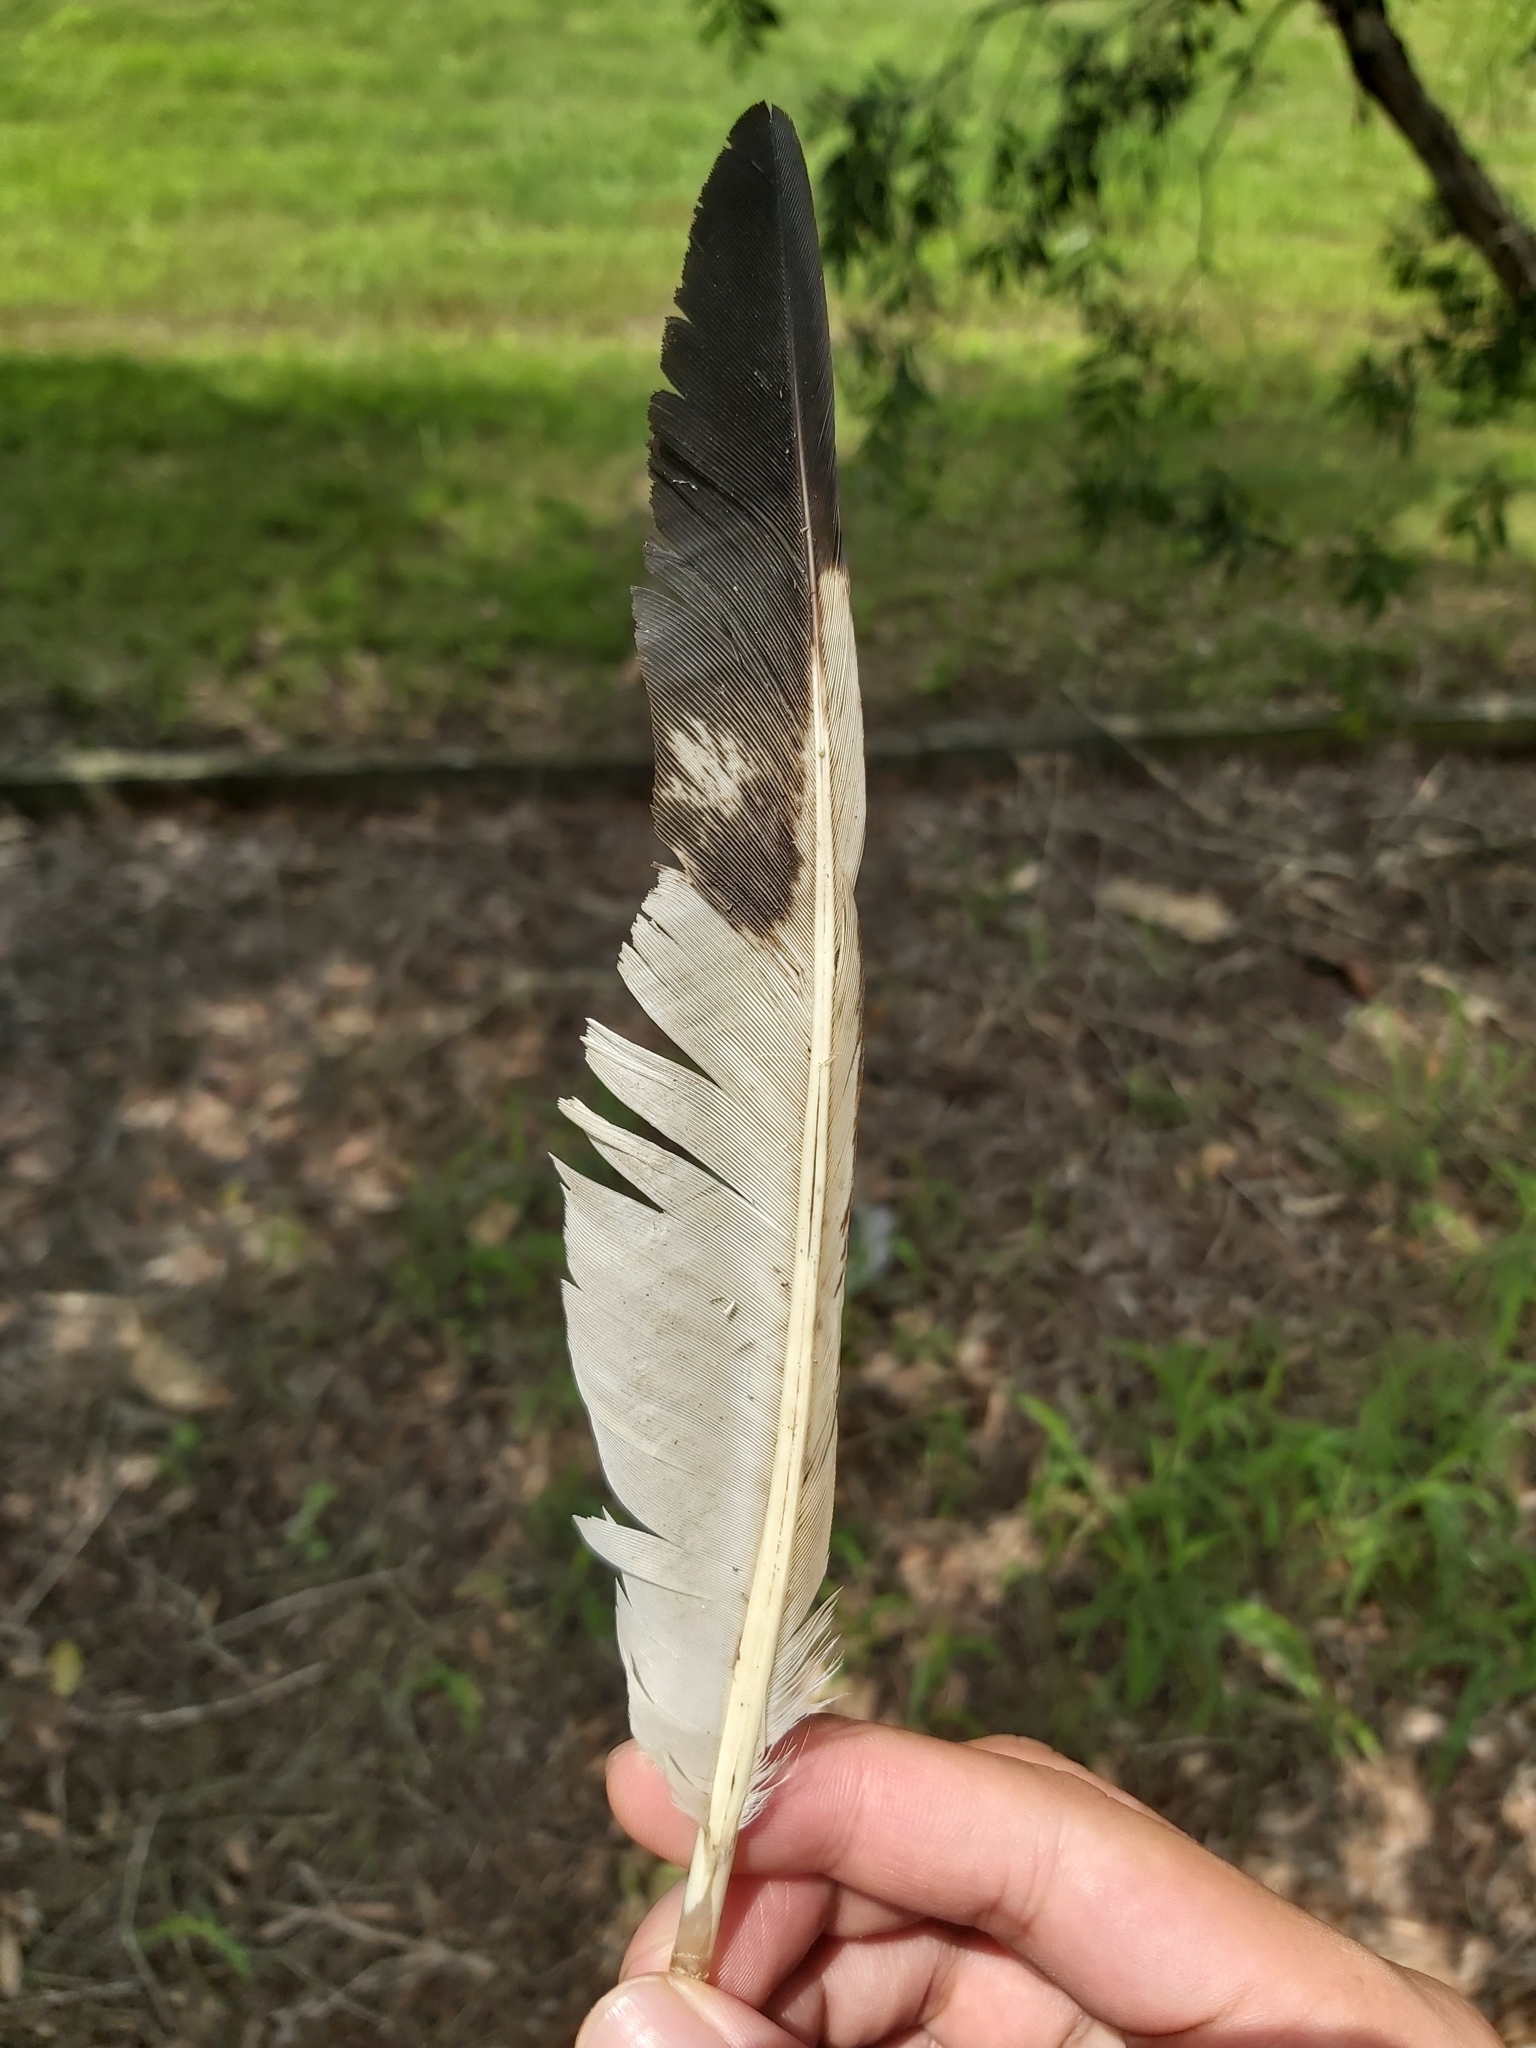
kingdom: Animalia
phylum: Chordata
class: Aves
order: Pelecaniformes
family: Threskiornithidae
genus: Threskiornis
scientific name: Threskiornis molucca
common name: Australian white ibis
